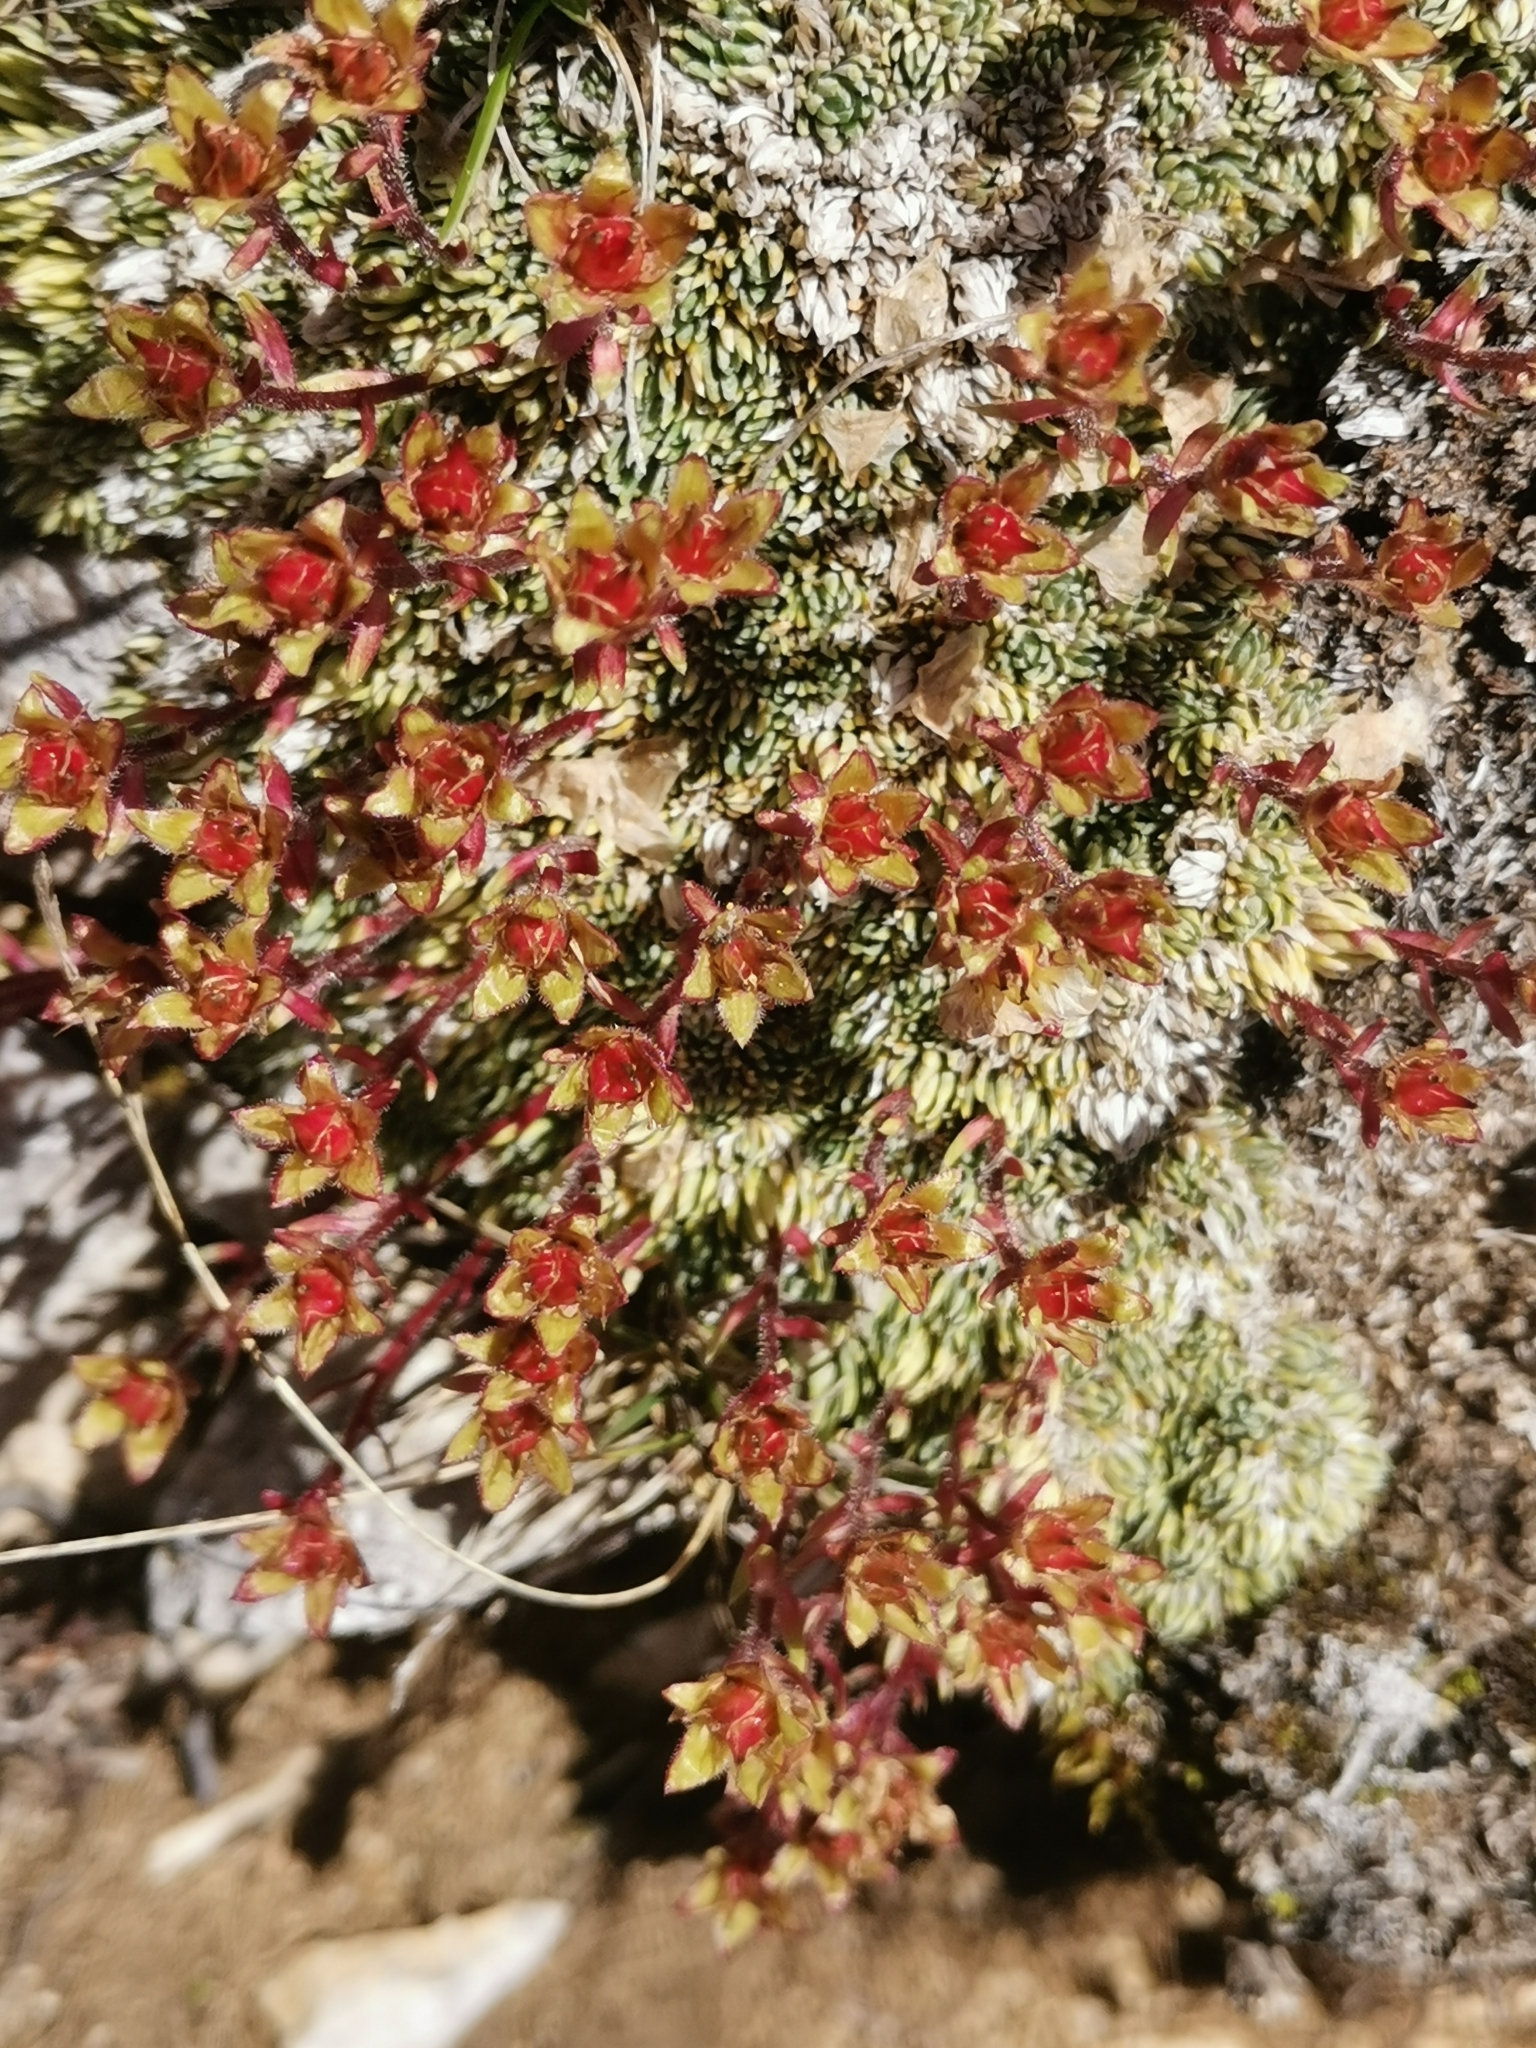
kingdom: Plantae
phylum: Tracheophyta
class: Magnoliopsida
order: Saxifragales
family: Saxifragaceae
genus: Saxifraga
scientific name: Saxifraga burseriana
